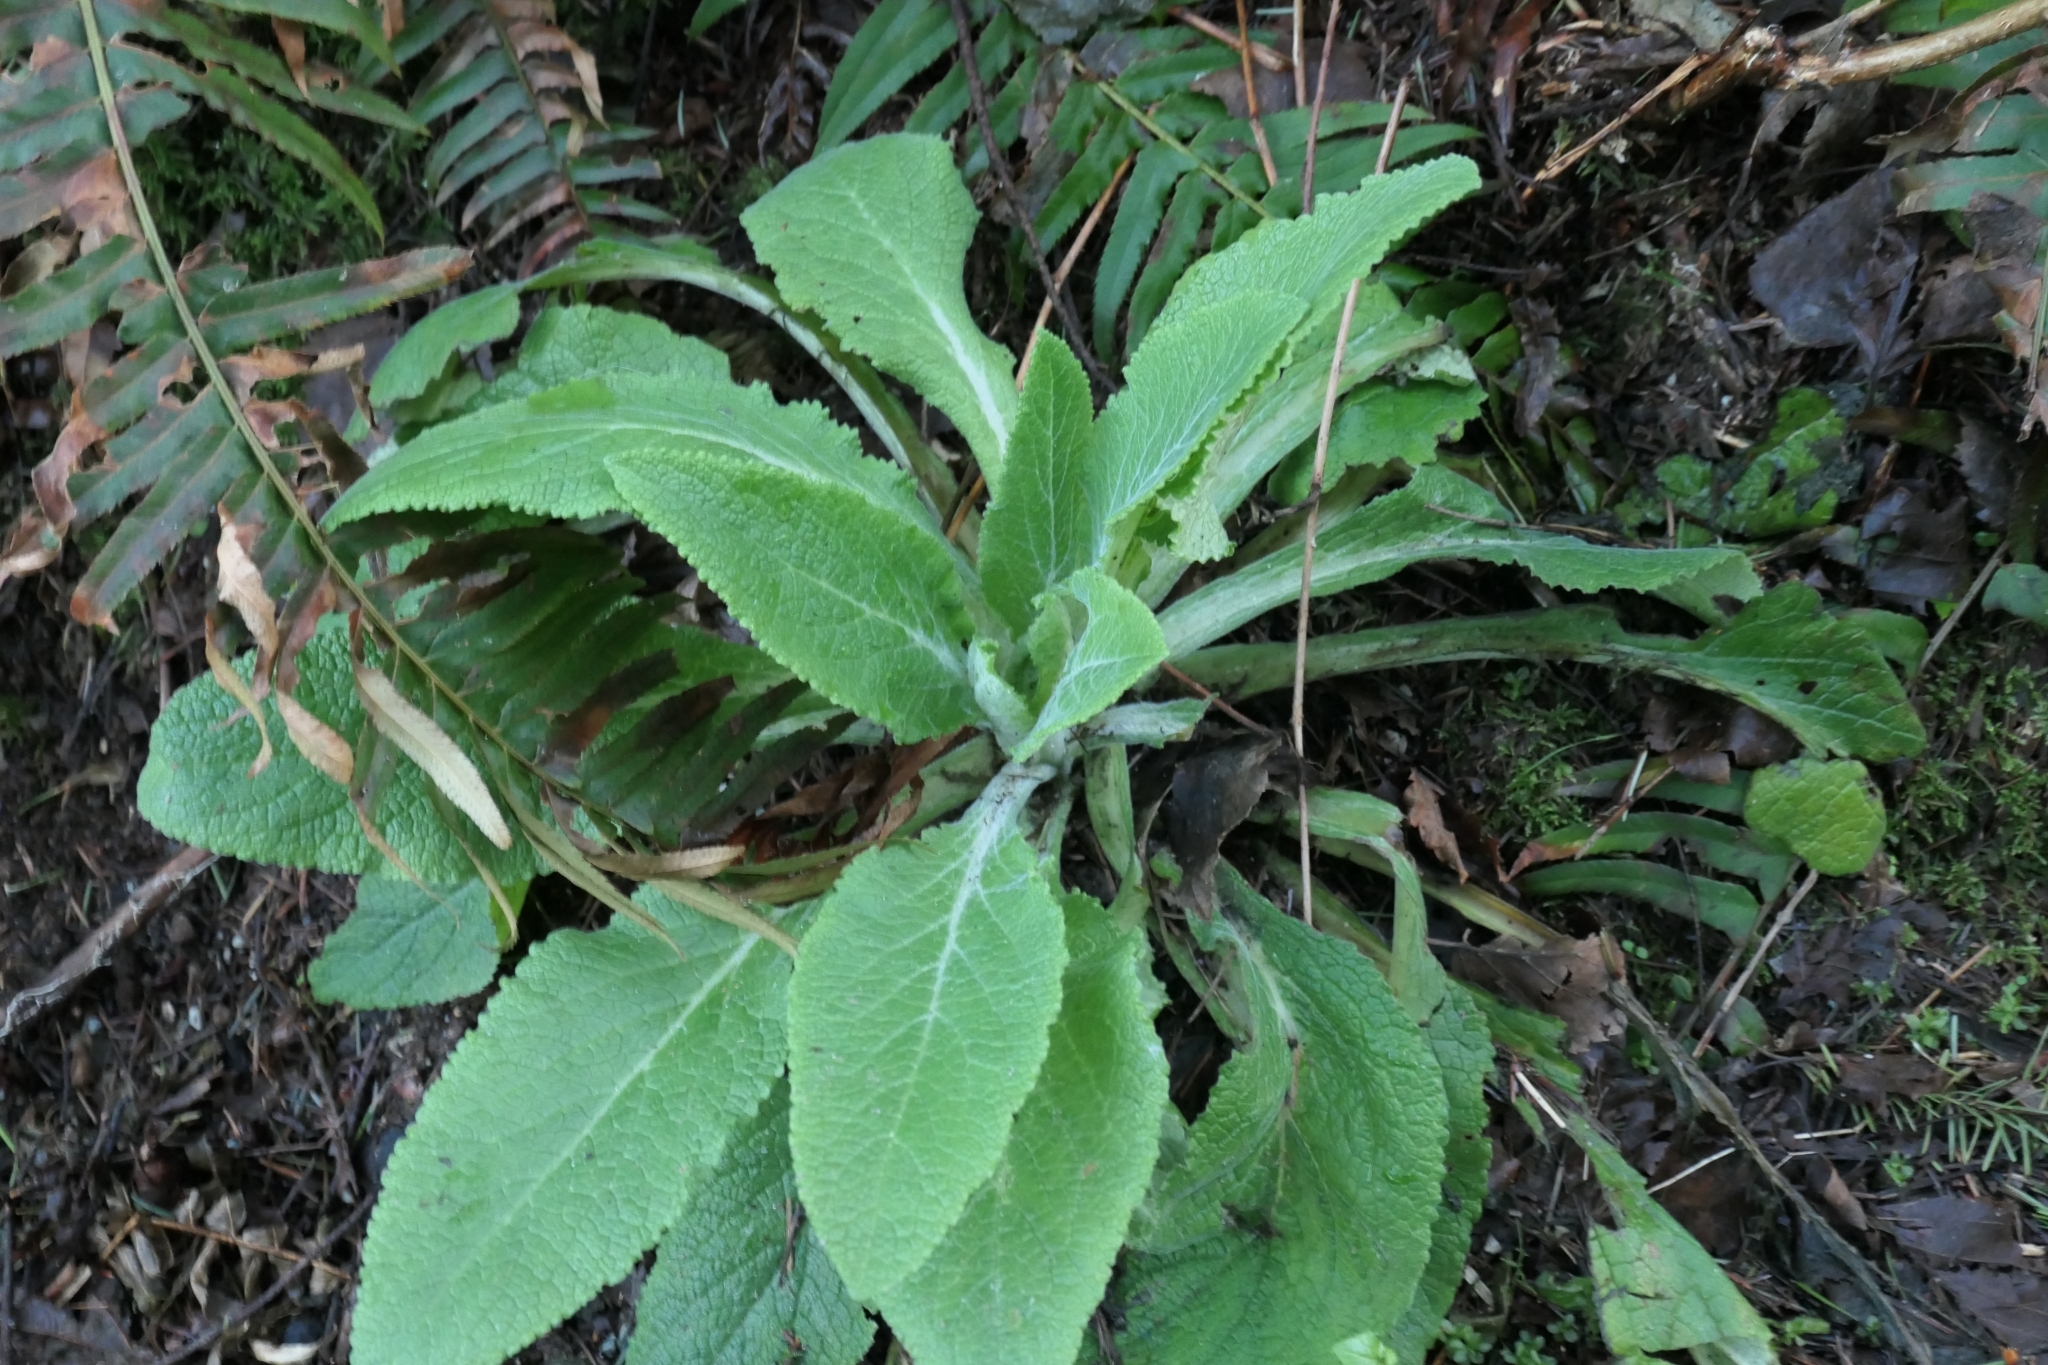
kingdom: Plantae
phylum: Tracheophyta
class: Magnoliopsida
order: Lamiales
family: Plantaginaceae
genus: Digitalis
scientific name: Digitalis purpurea
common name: Foxglove
